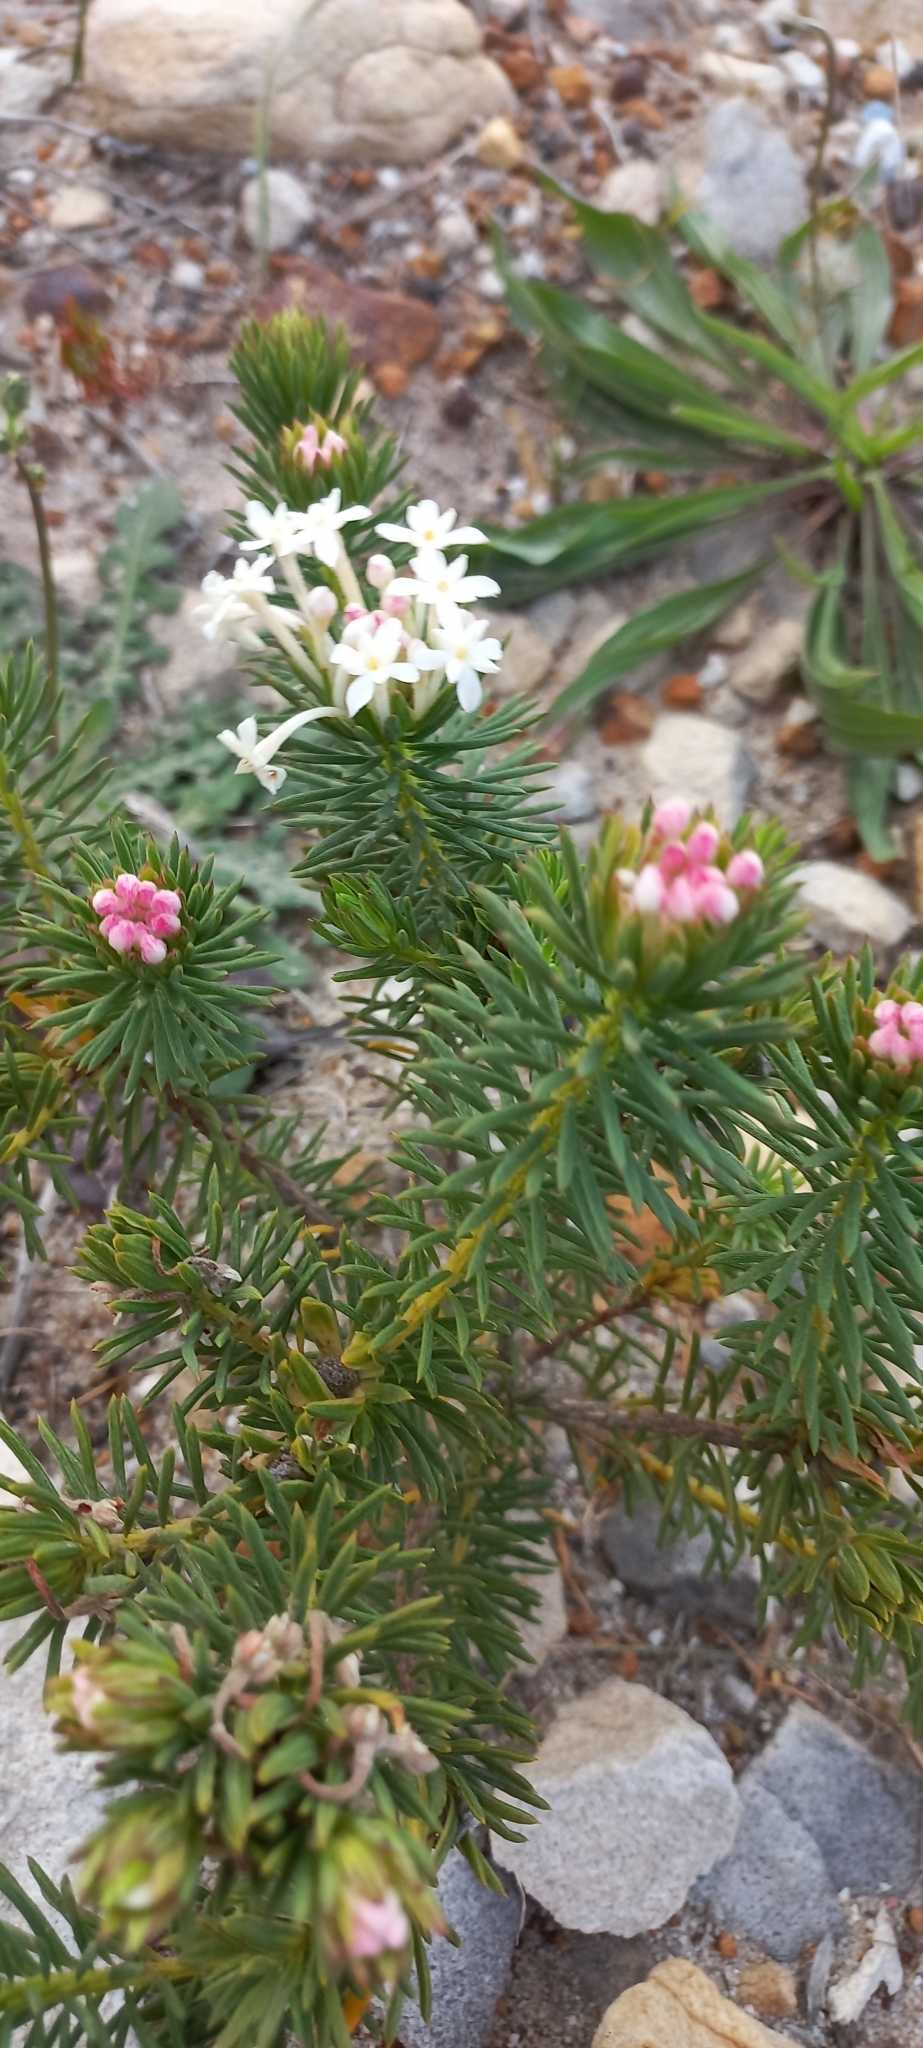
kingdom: Plantae
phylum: Tracheophyta
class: Magnoliopsida
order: Malvales
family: Thymelaeaceae
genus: Gnidia
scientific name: Gnidia pinifolia
